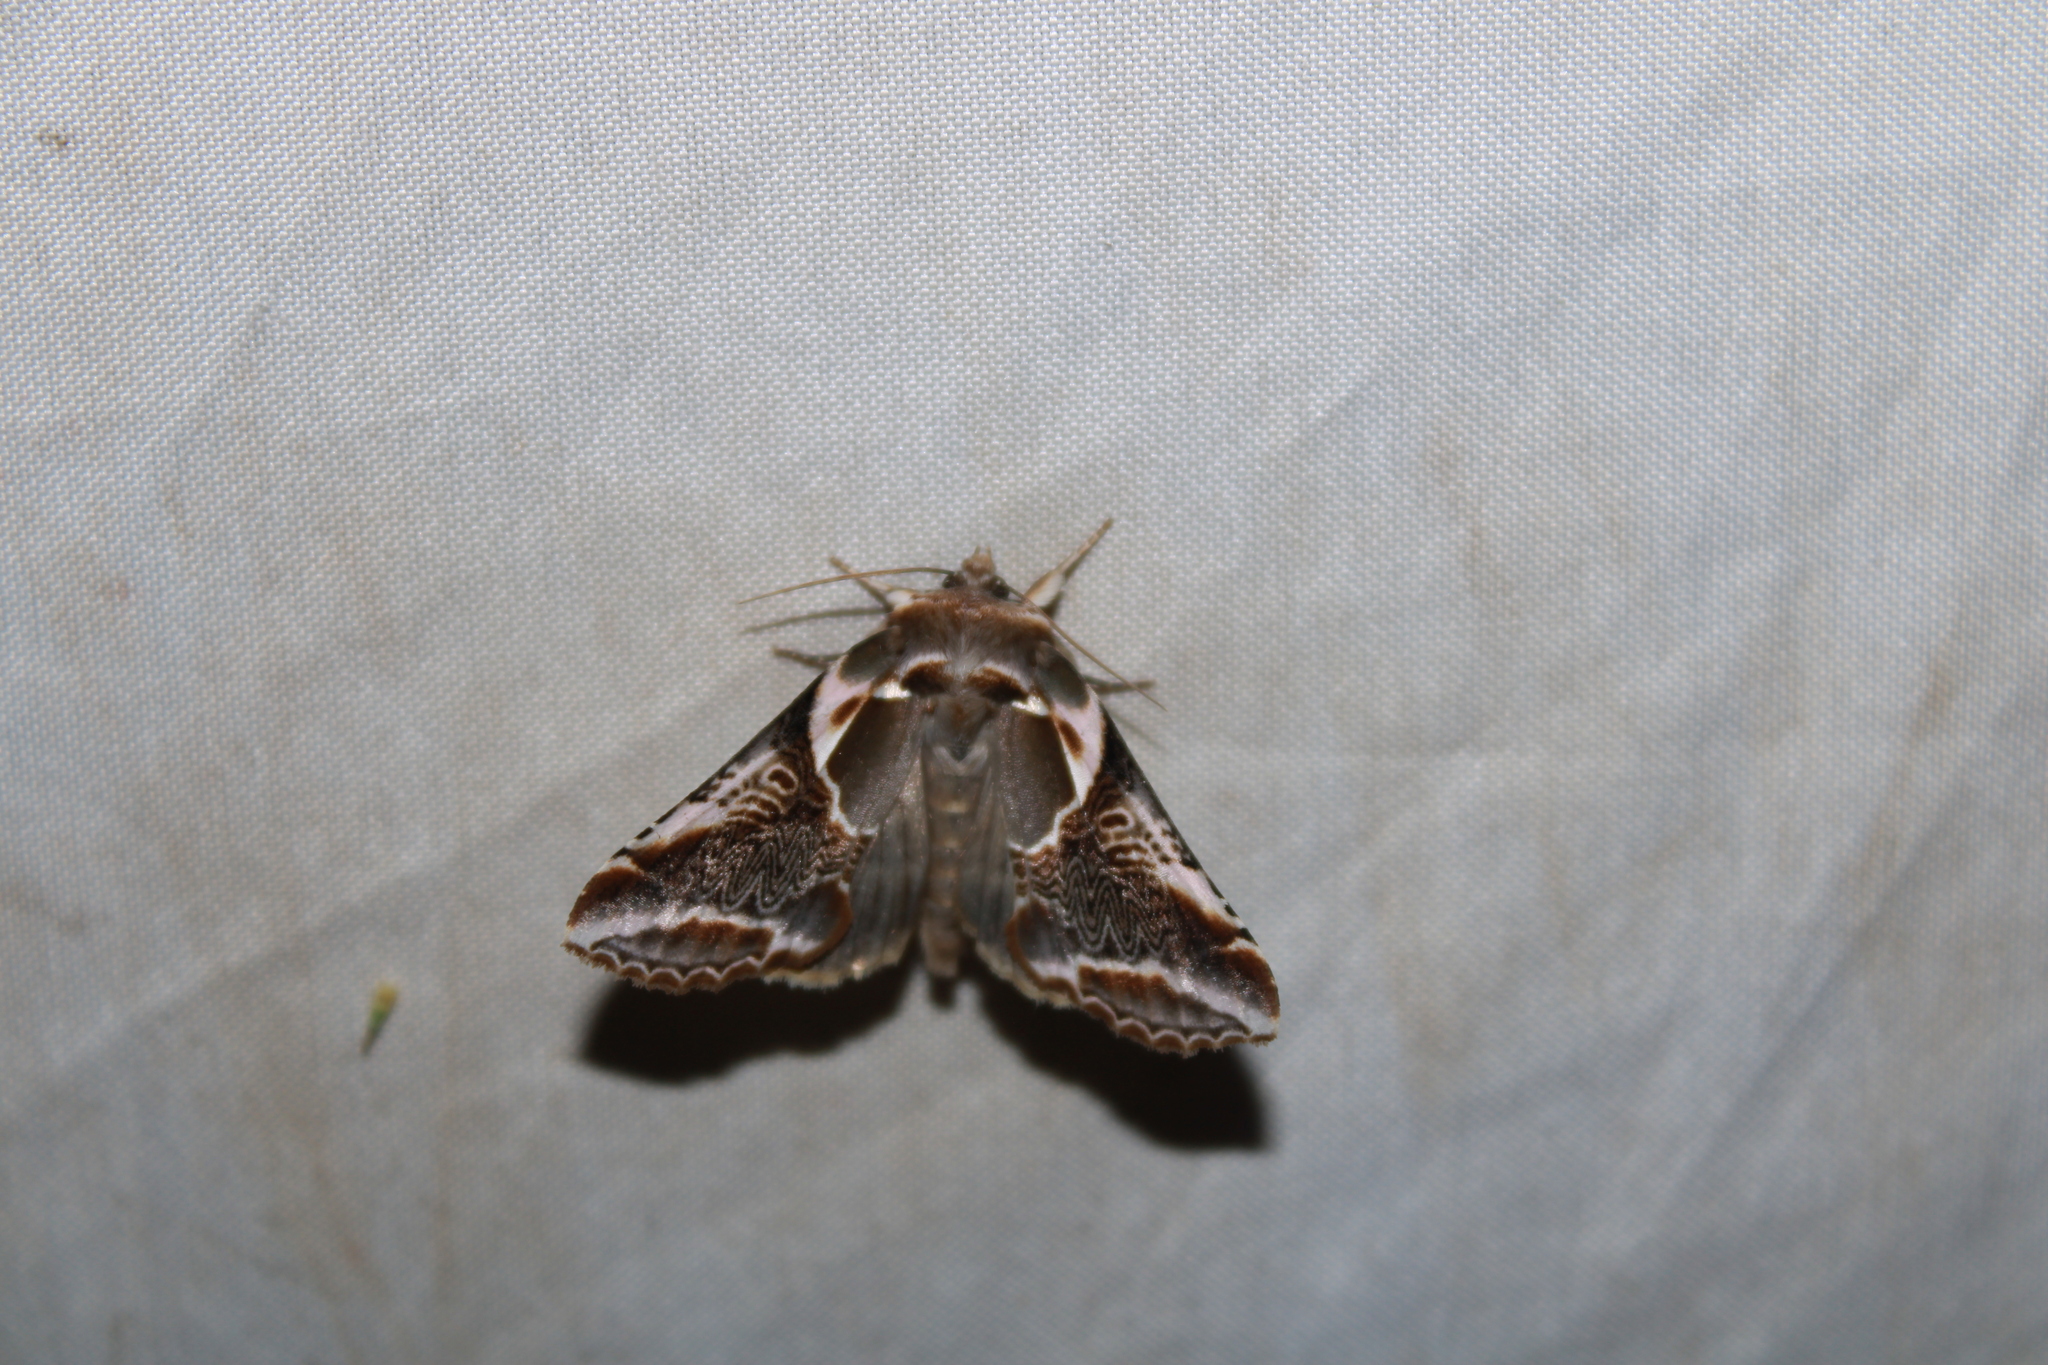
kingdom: Animalia
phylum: Arthropoda
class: Insecta
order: Lepidoptera
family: Drepanidae
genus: Habrosyne
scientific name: Habrosyne scripta
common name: Lettered habrosyne moth
